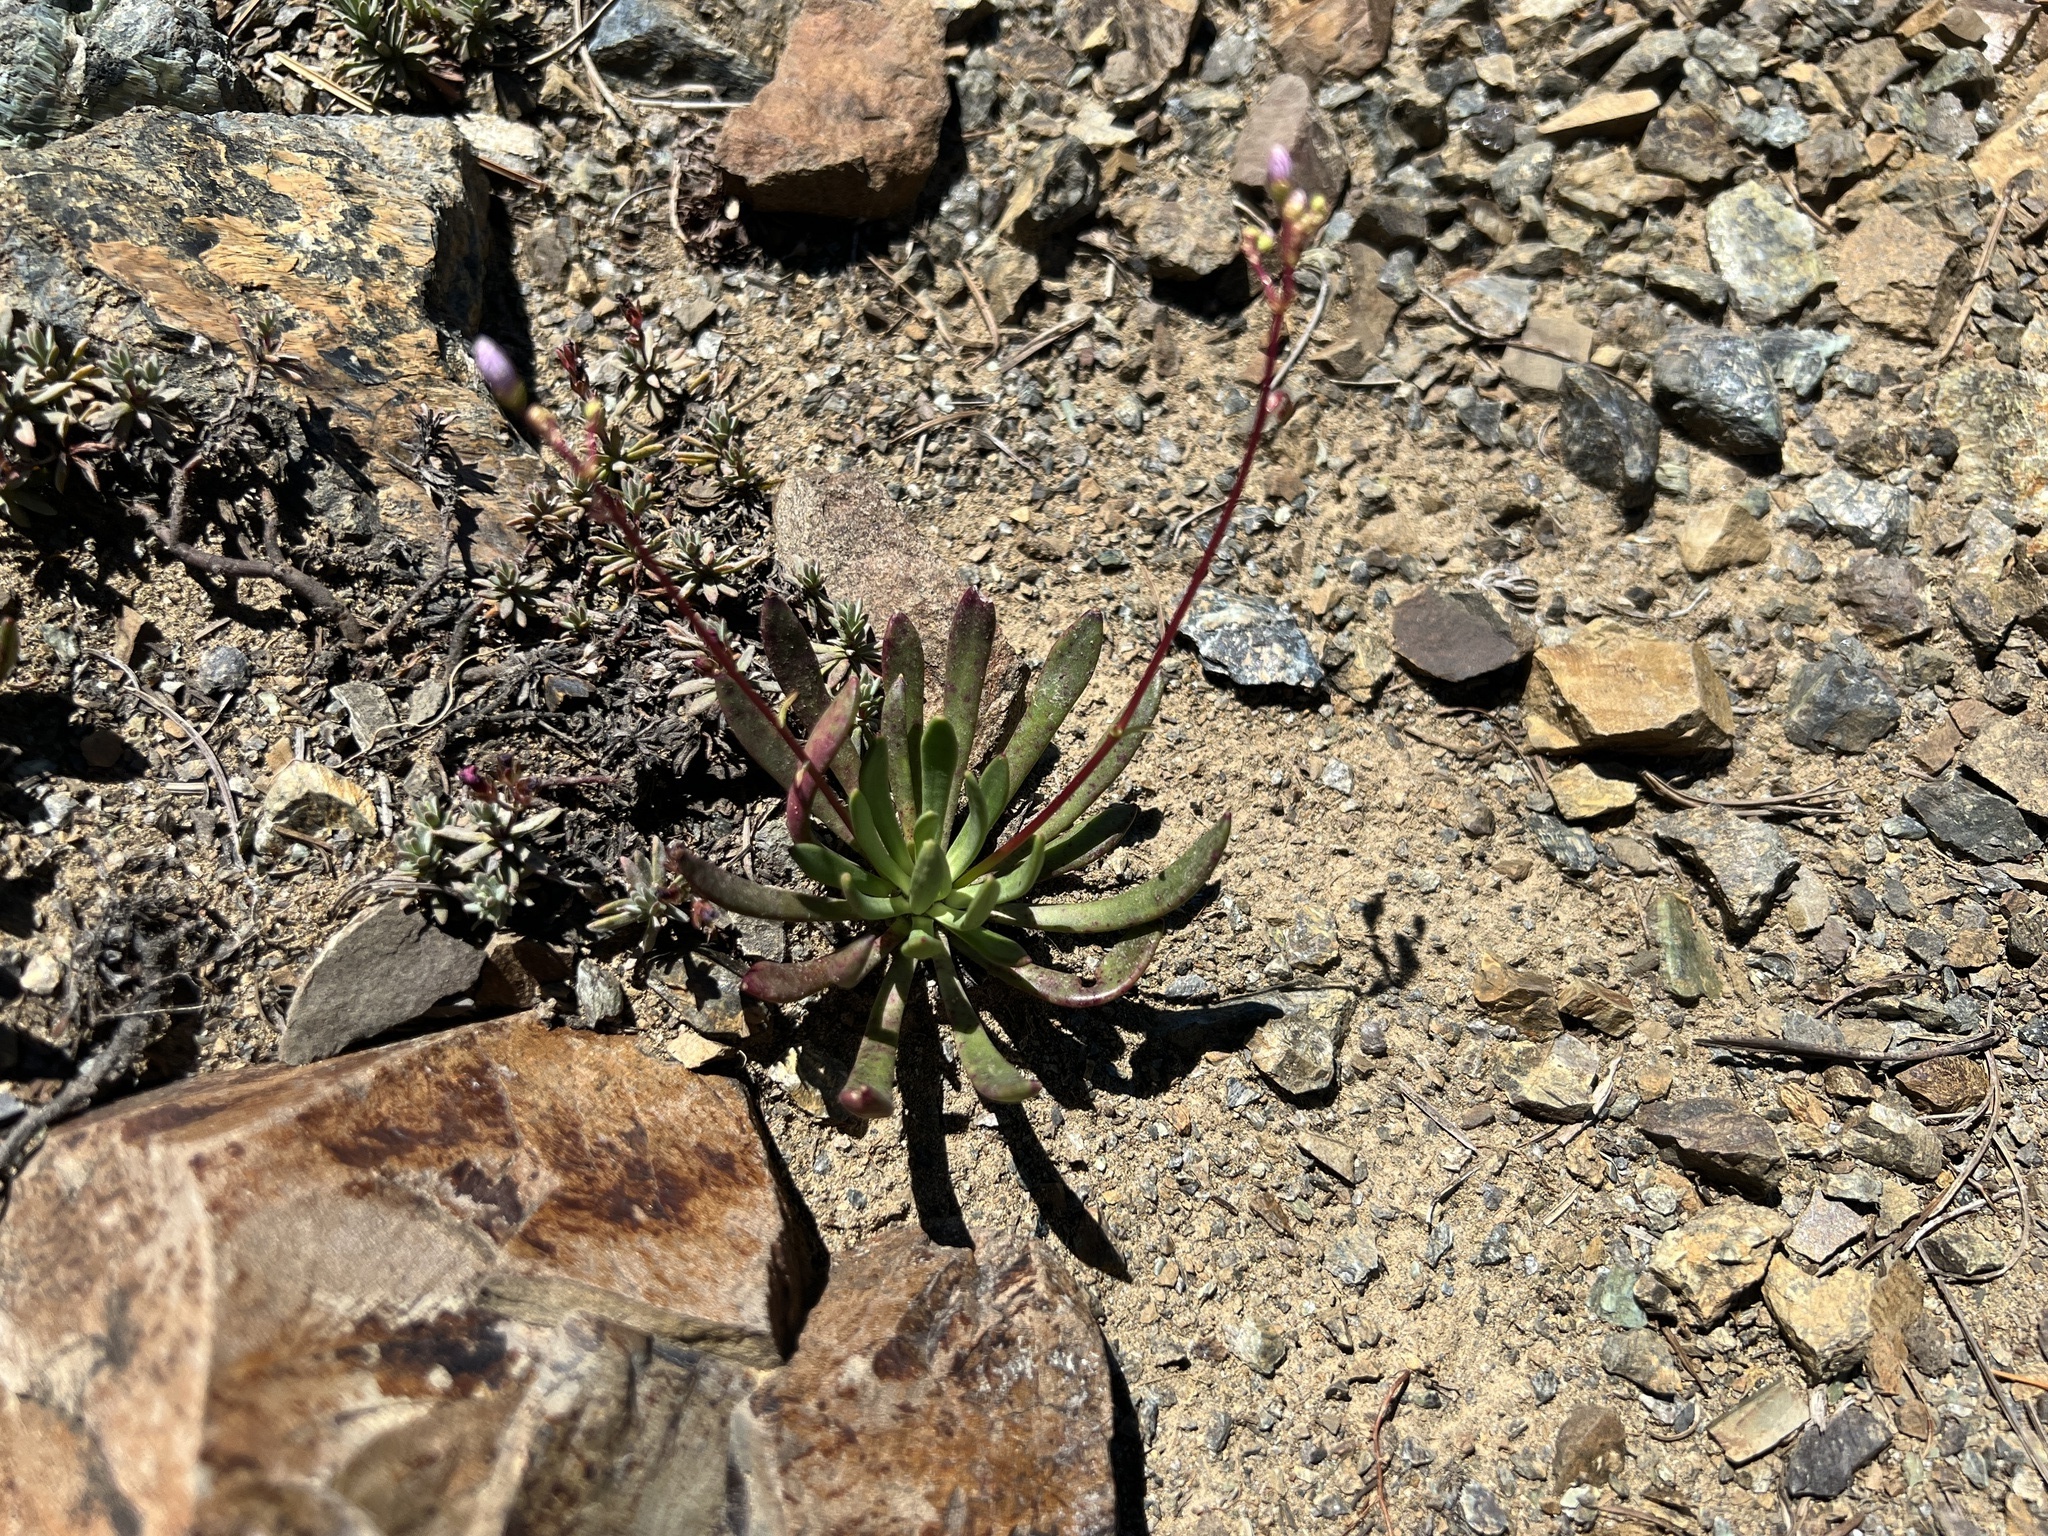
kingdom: Plantae
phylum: Tracheophyta
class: Magnoliopsida
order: Caryophyllales
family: Montiaceae
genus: Lewisia
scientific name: Lewisia columbiana
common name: Columbia lewisia
